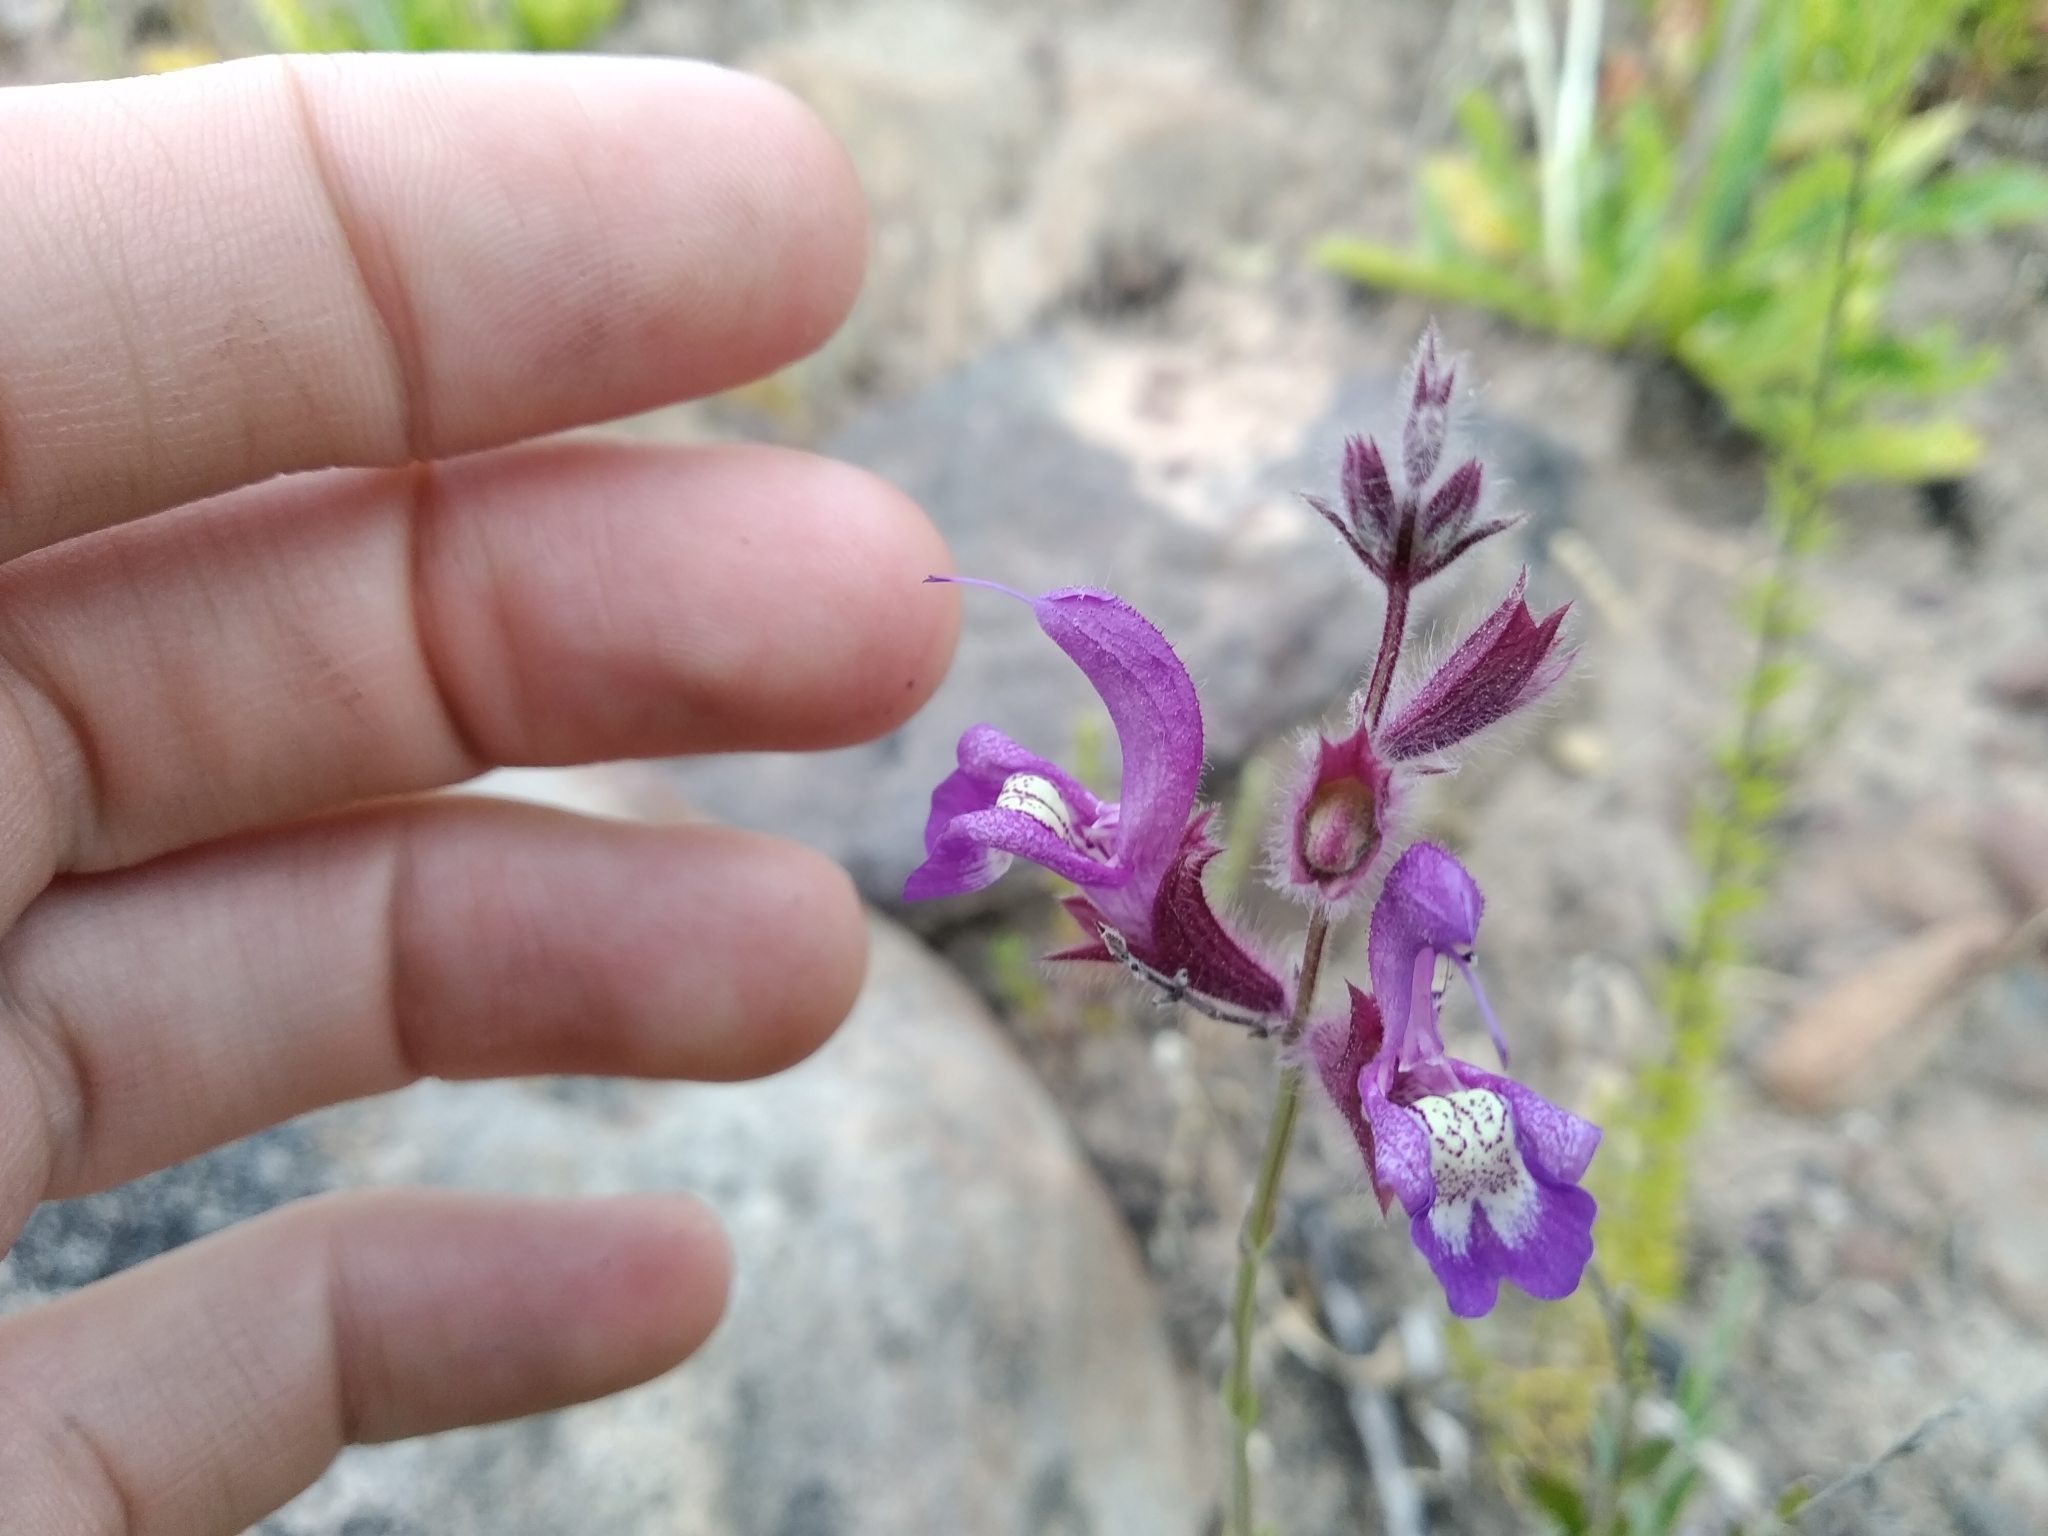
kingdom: Plantae
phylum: Tracheophyta
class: Magnoliopsida
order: Lamiales
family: Lamiaceae
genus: Salvia
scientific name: Salvia albicaulis
